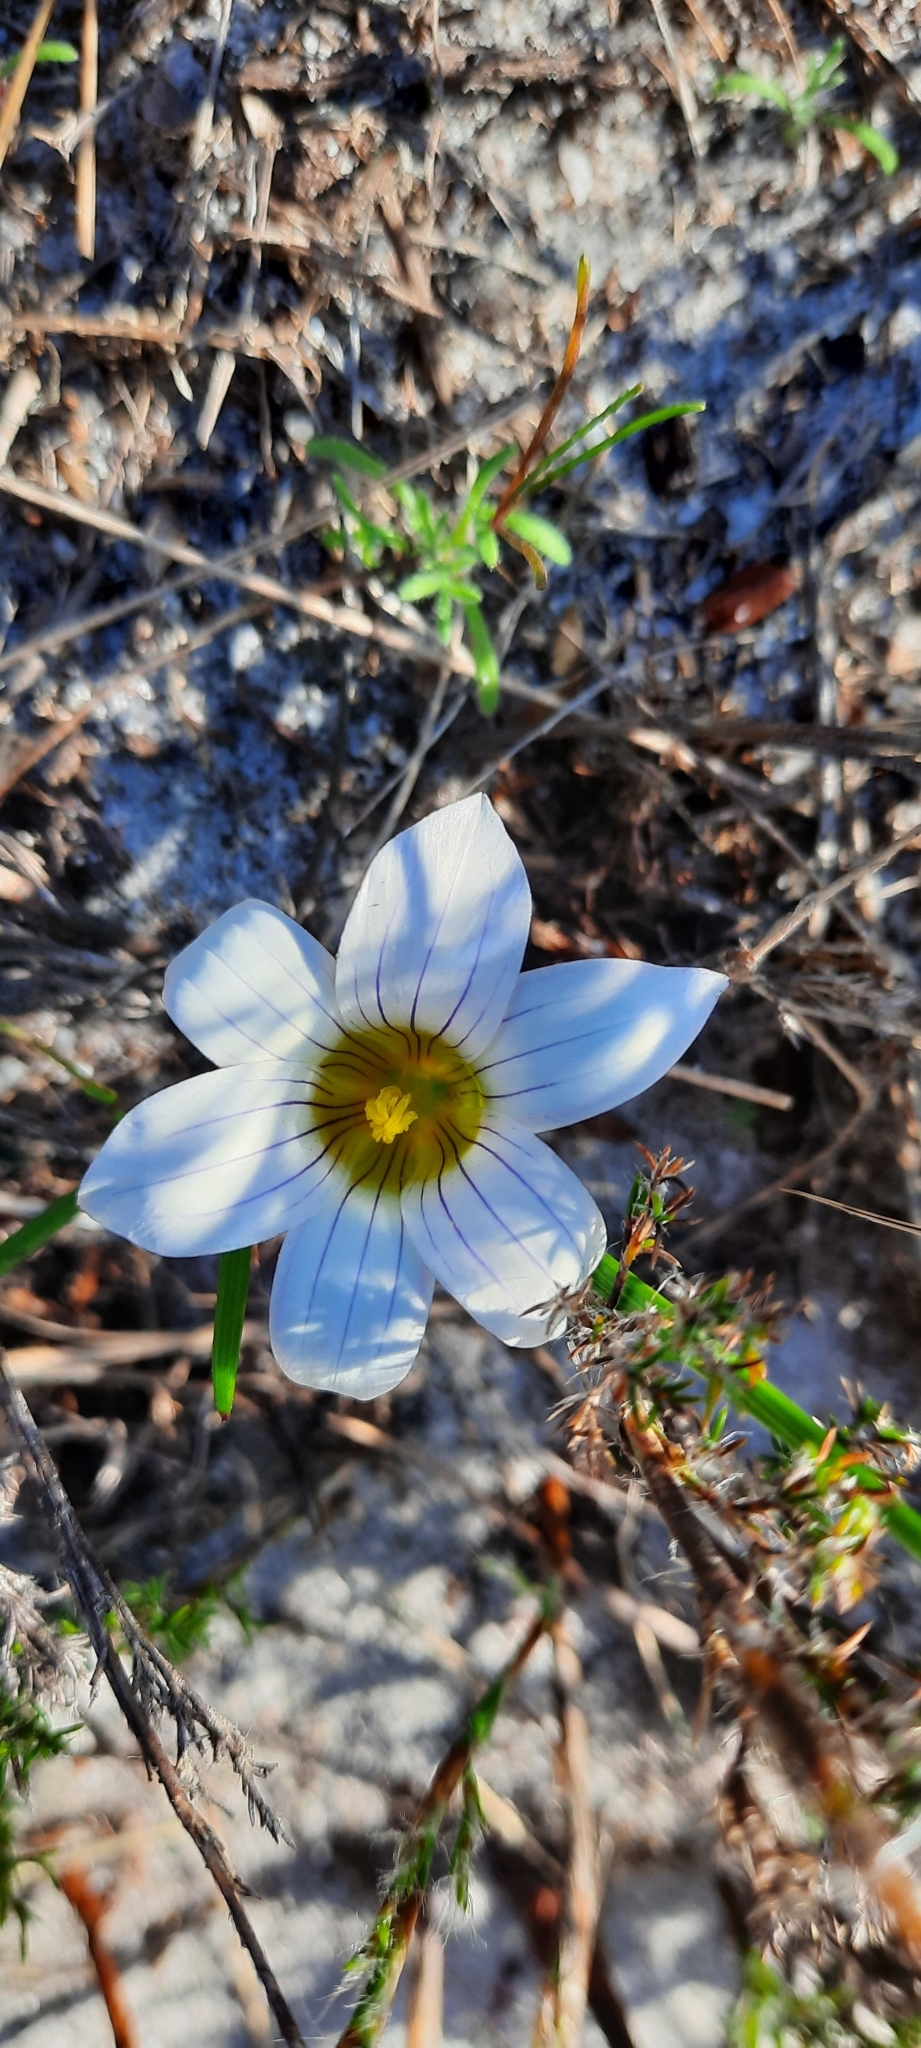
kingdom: Plantae
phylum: Tracheophyta
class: Liliopsida
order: Asparagales
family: Iridaceae
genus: Romulea
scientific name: Romulea flava
